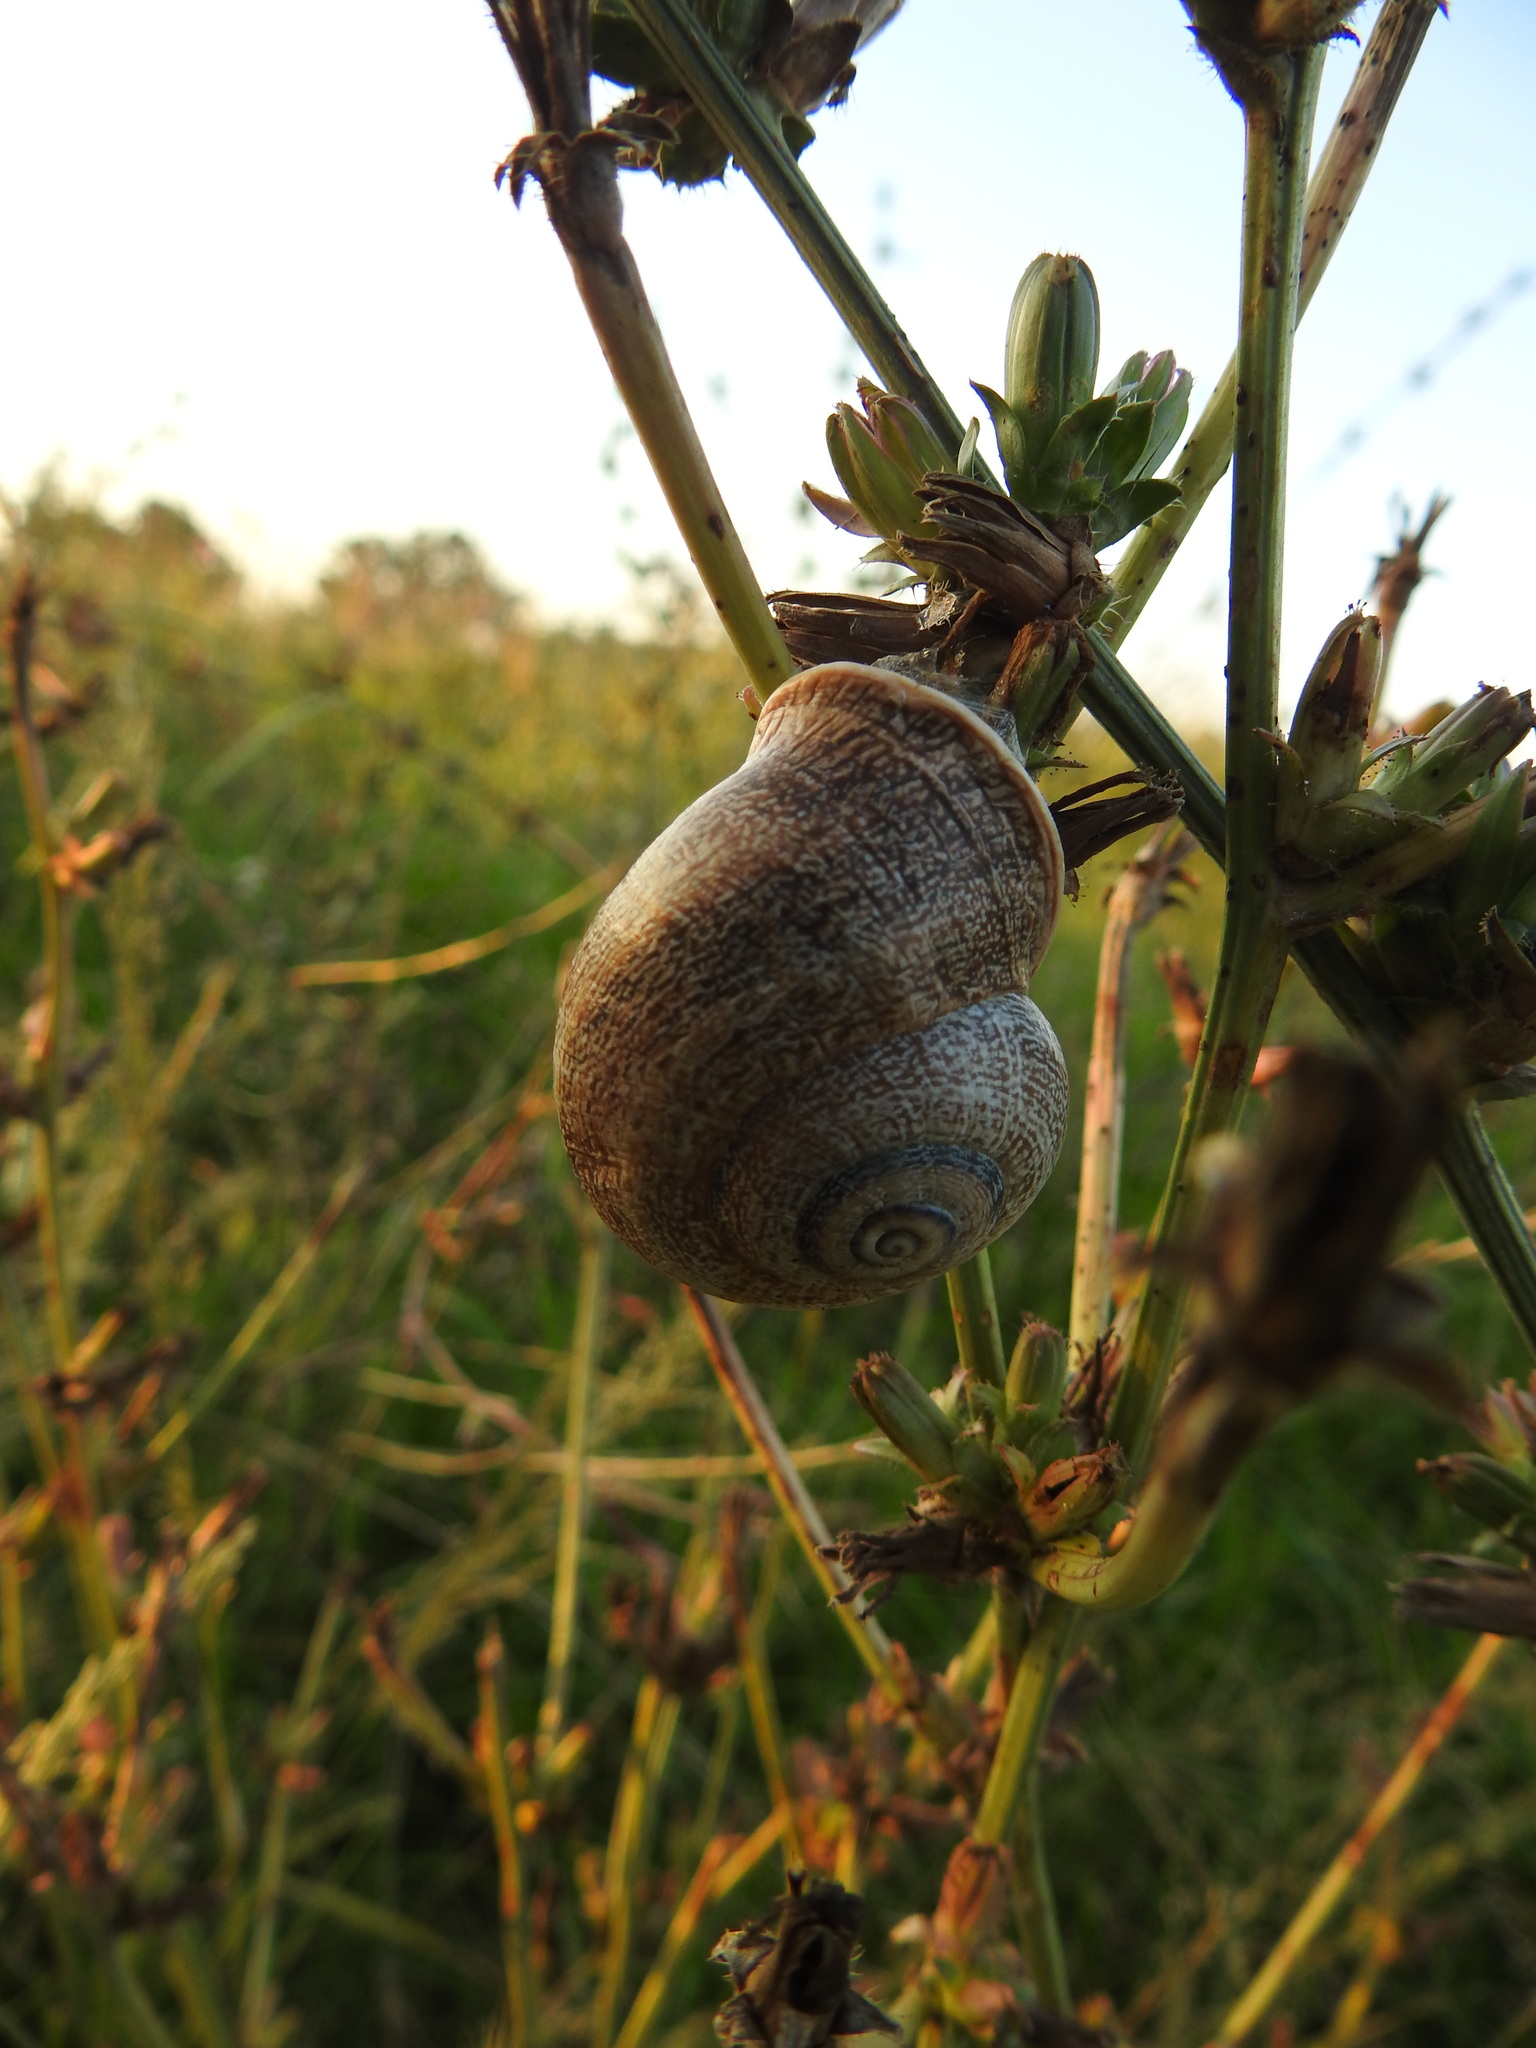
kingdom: Animalia
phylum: Mollusca
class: Gastropoda
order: Stylommatophora
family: Helicidae
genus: Otala
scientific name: Otala punctata
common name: Milk snail
